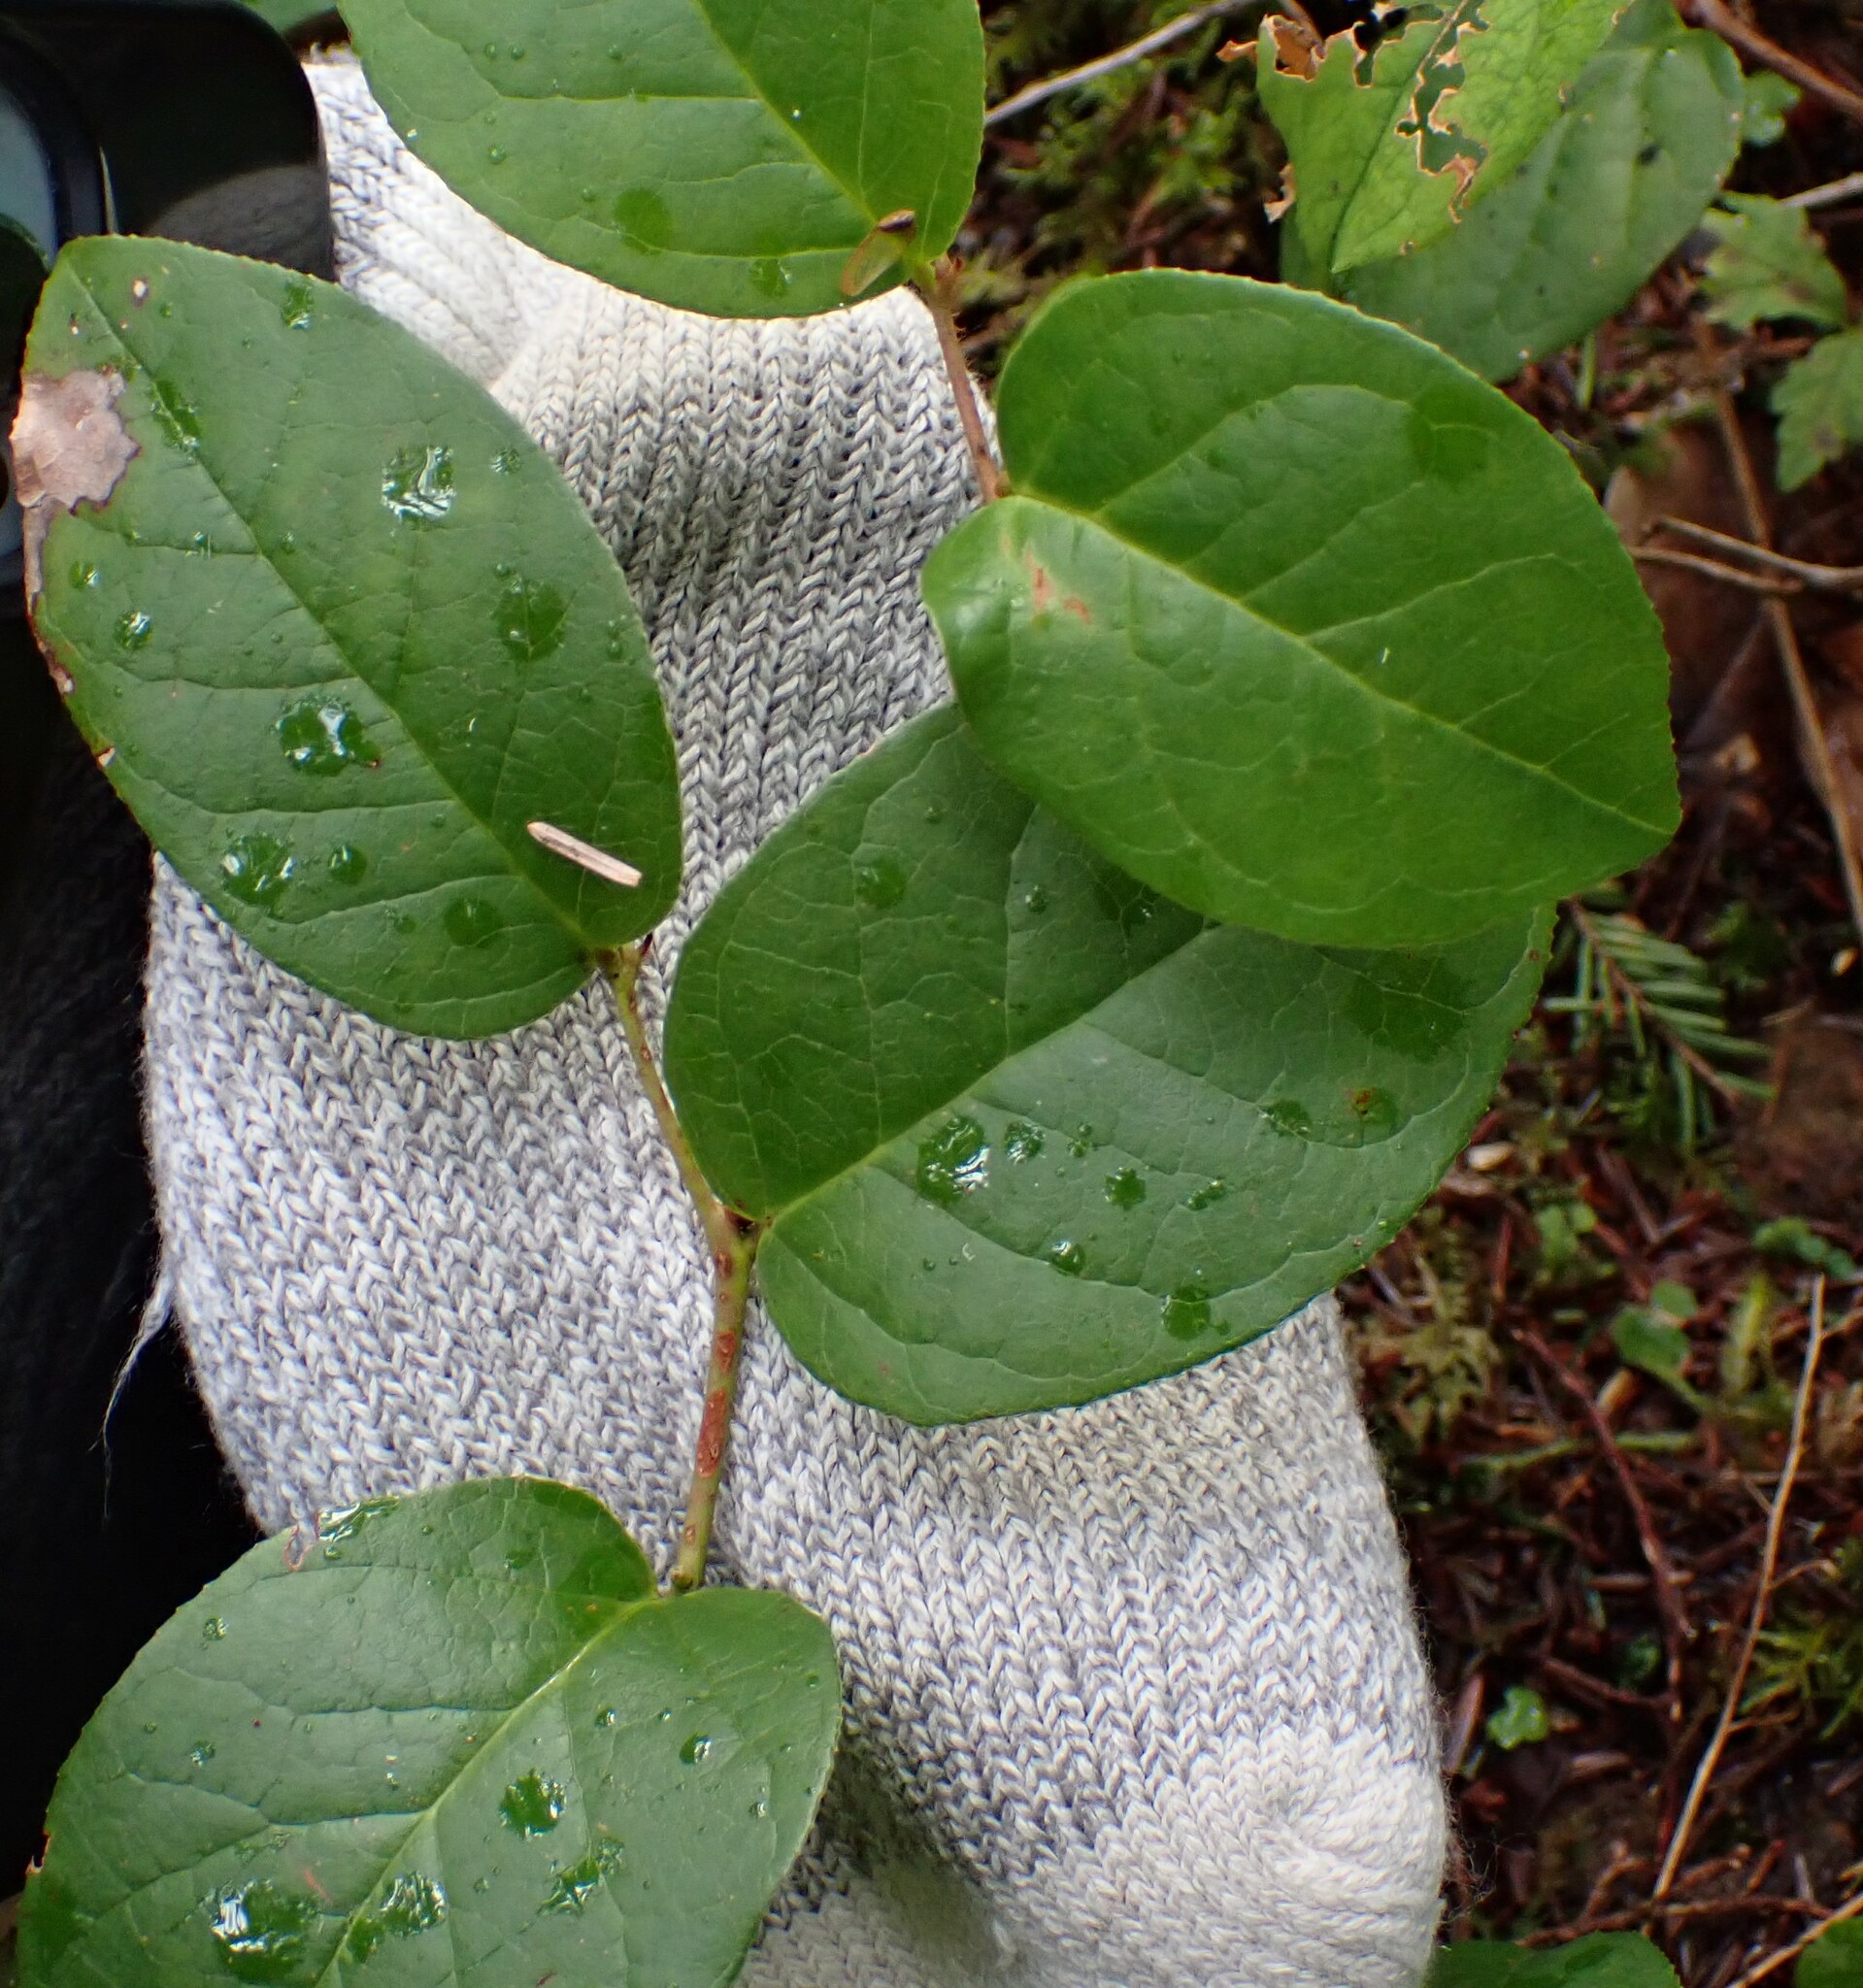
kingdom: Plantae
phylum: Tracheophyta
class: Magnoliopsida
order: Ericales
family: Ericaceae
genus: Gaultheria
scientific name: Gaultheria shallon
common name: Shallon
